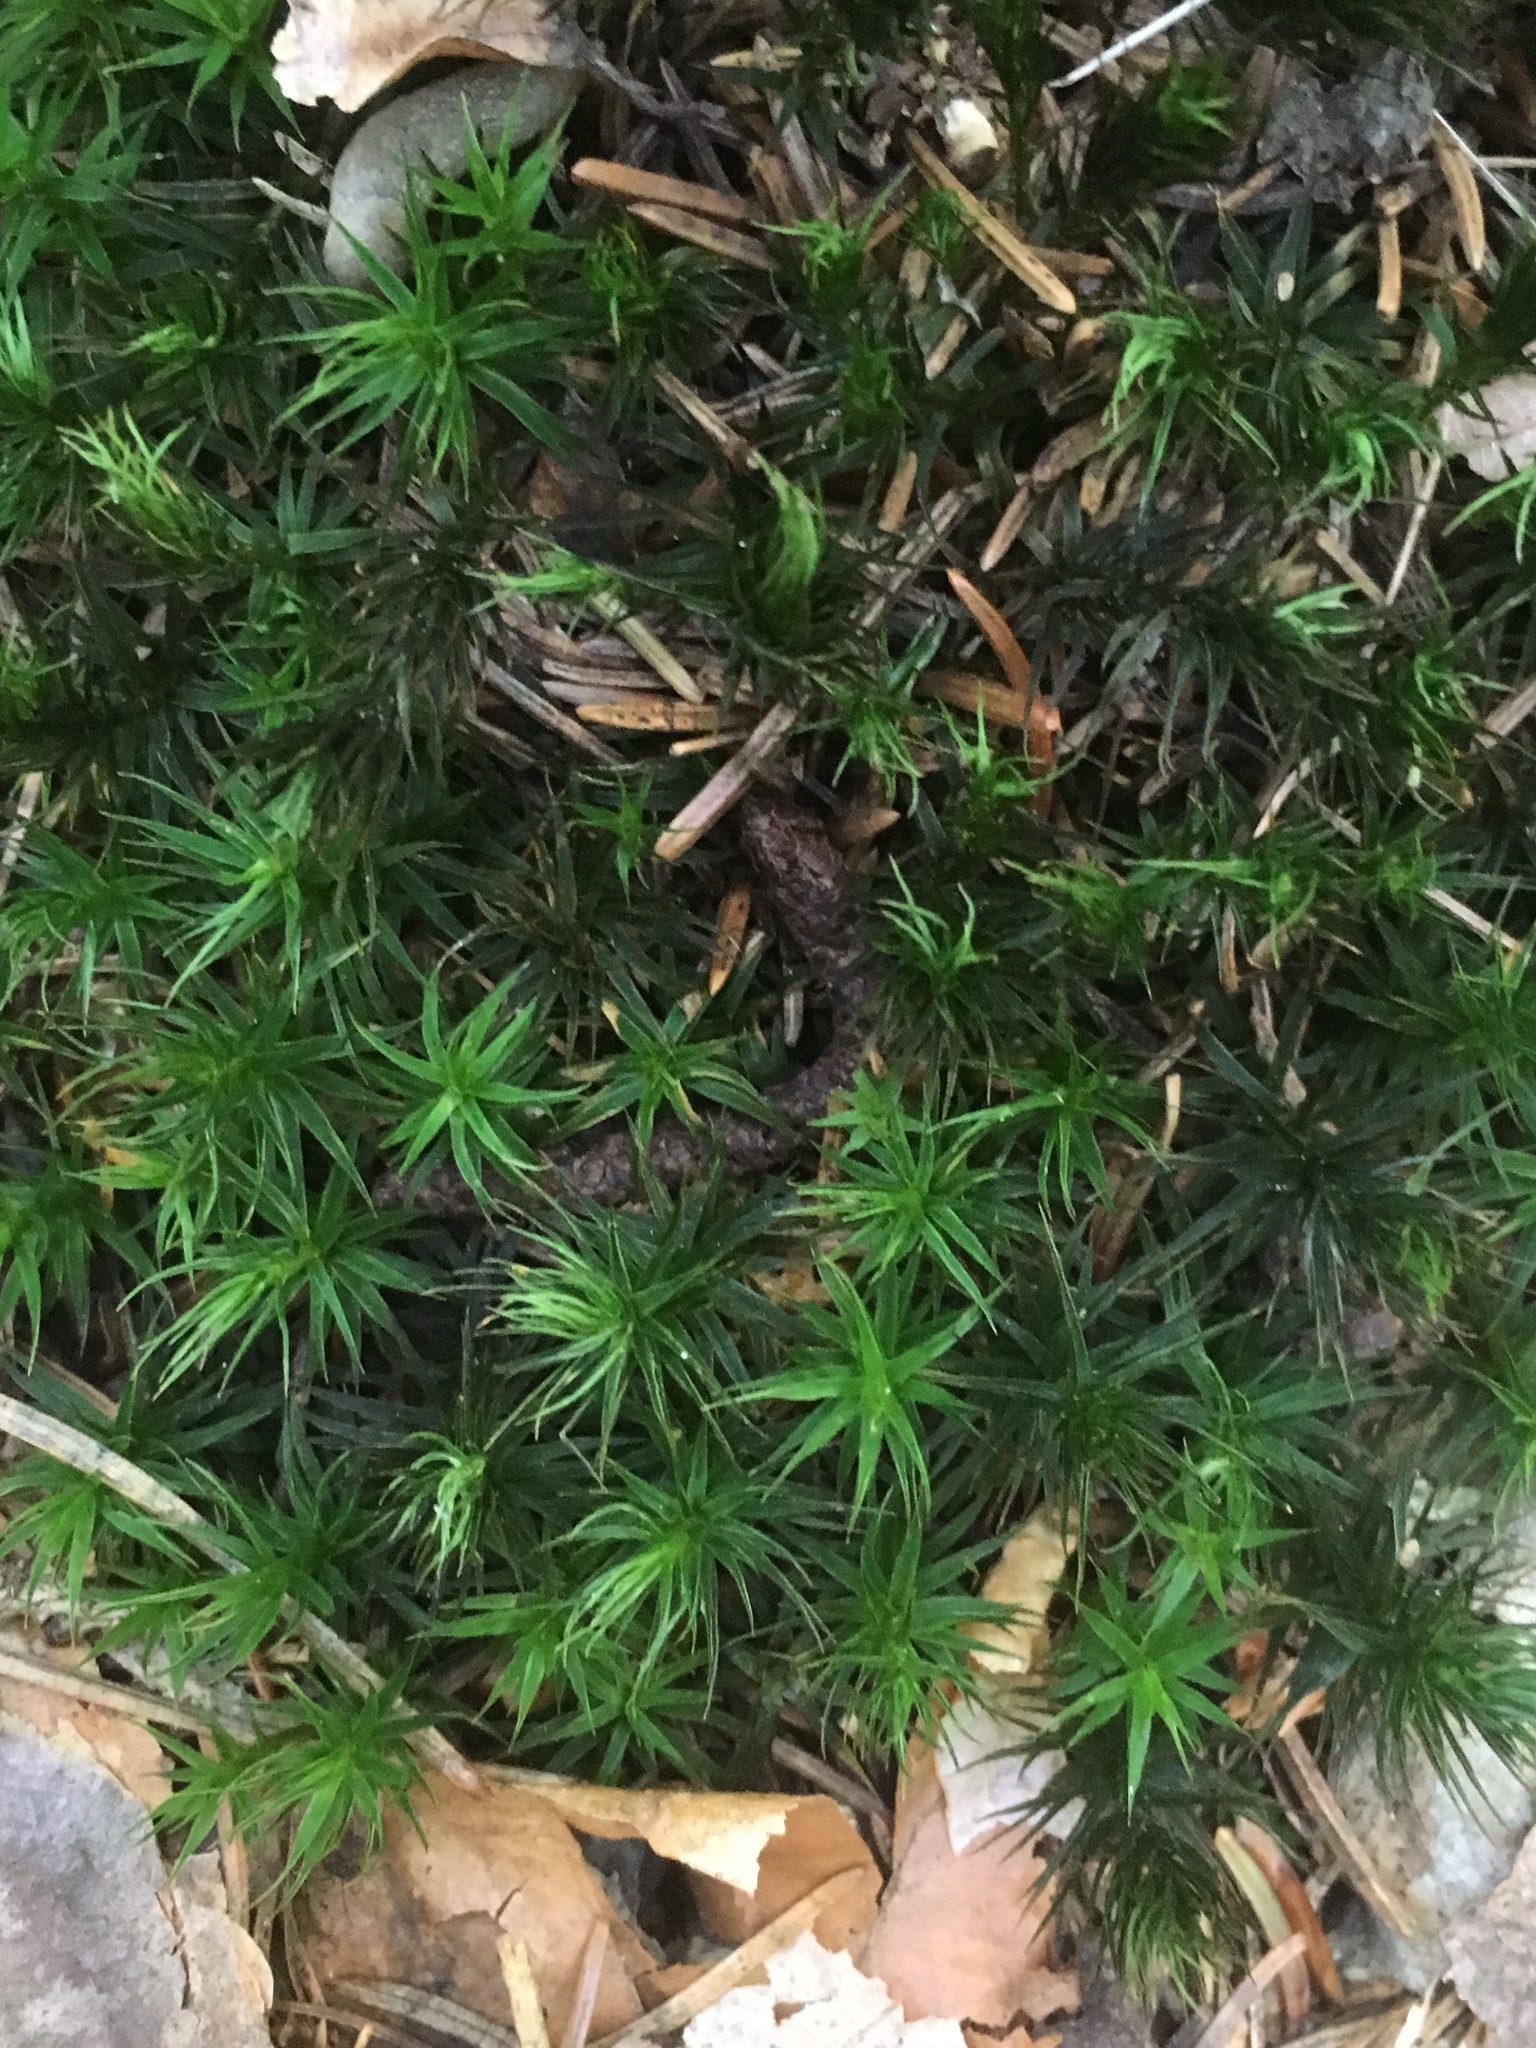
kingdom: Plantae
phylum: Bryophyta
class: Polytrichopsida
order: Polytrichales
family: Polytrichaceae
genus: Polytrichum
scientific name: Polytrichum formosum
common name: Bank haircap moss
